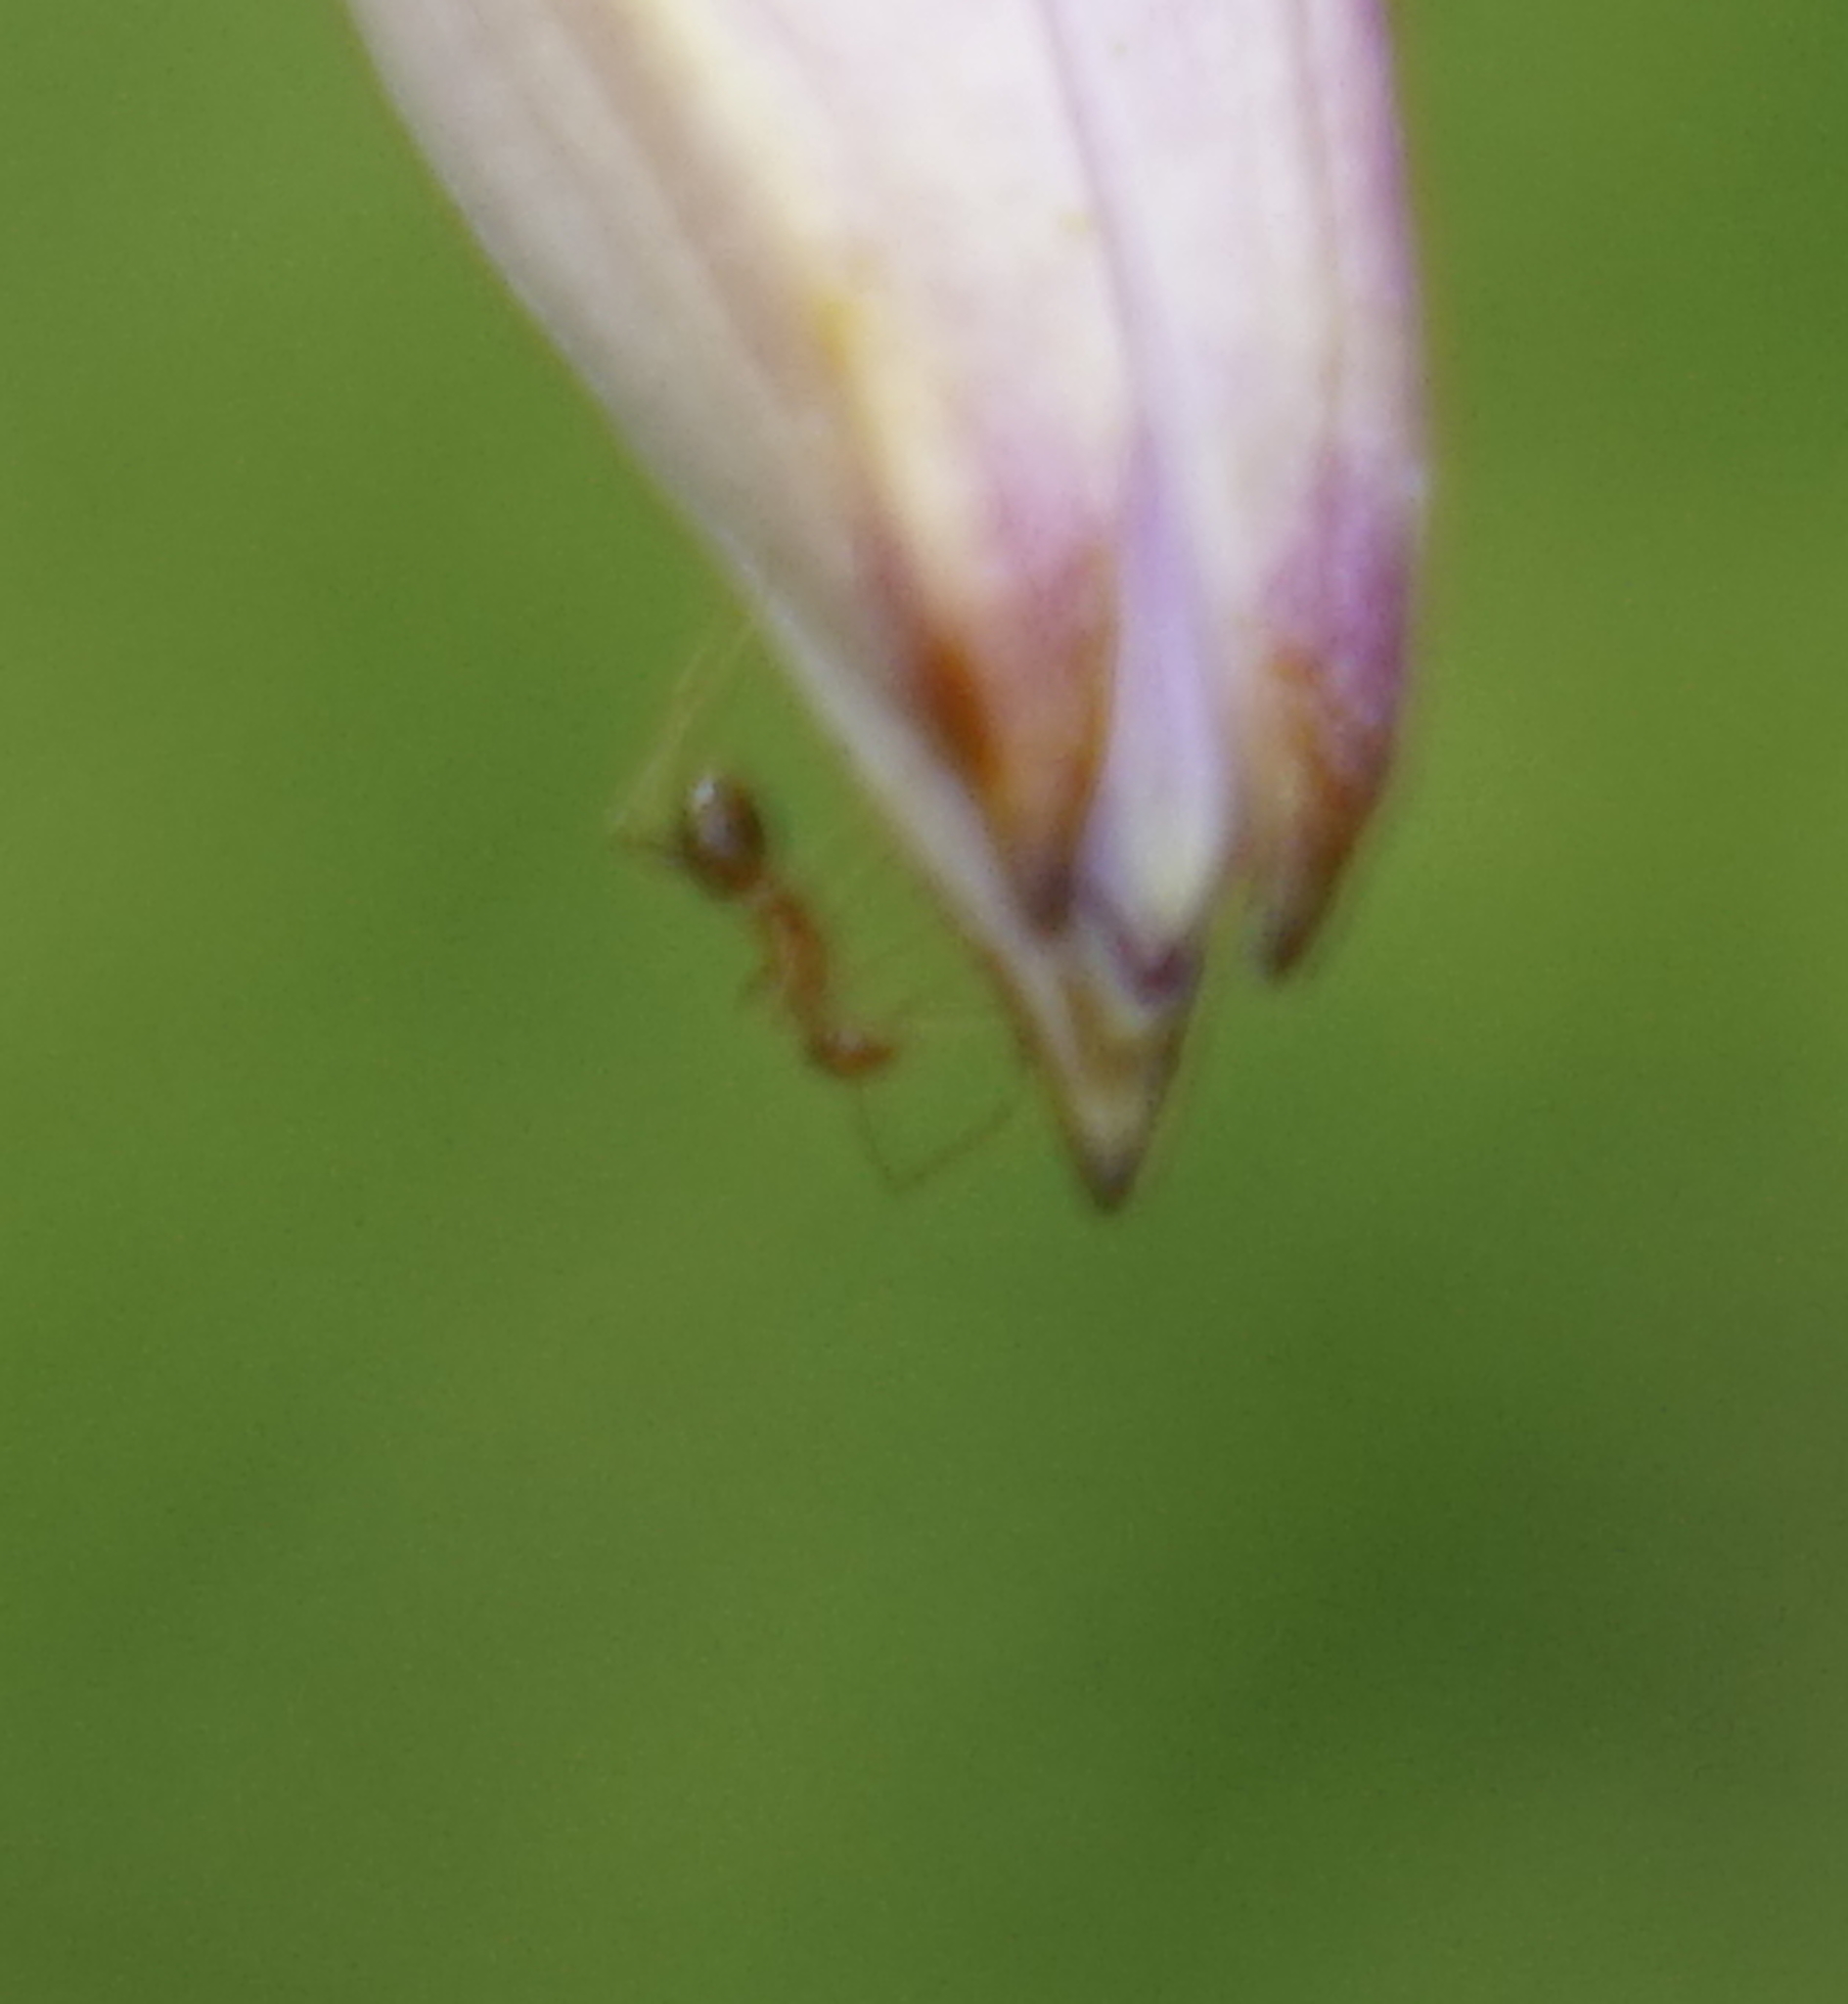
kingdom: Animalia
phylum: Arthropoda
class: Insecta
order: Hymenoptera
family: Formicidae
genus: Anoplolepis
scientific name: Anoplolepis gracilipes
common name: Ant
